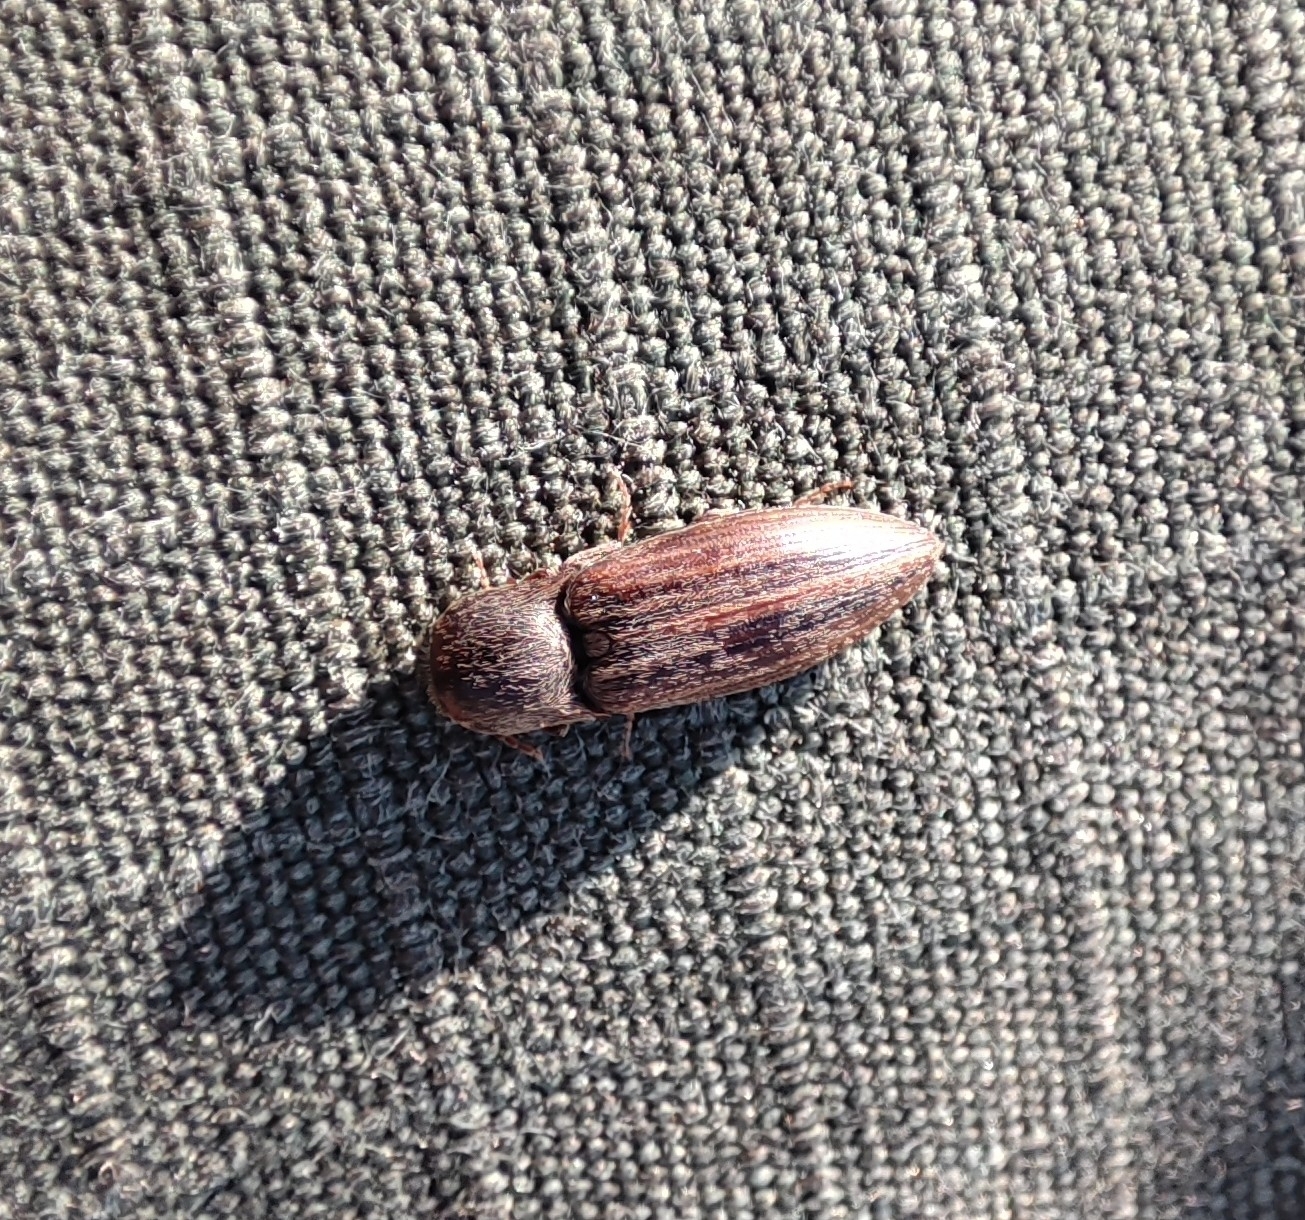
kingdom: Animalia
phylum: Arthropoda
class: Insecta
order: Coleoptera
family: Elateridae
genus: Agriotes
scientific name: Agriotes lineatus
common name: Lined click beetle
